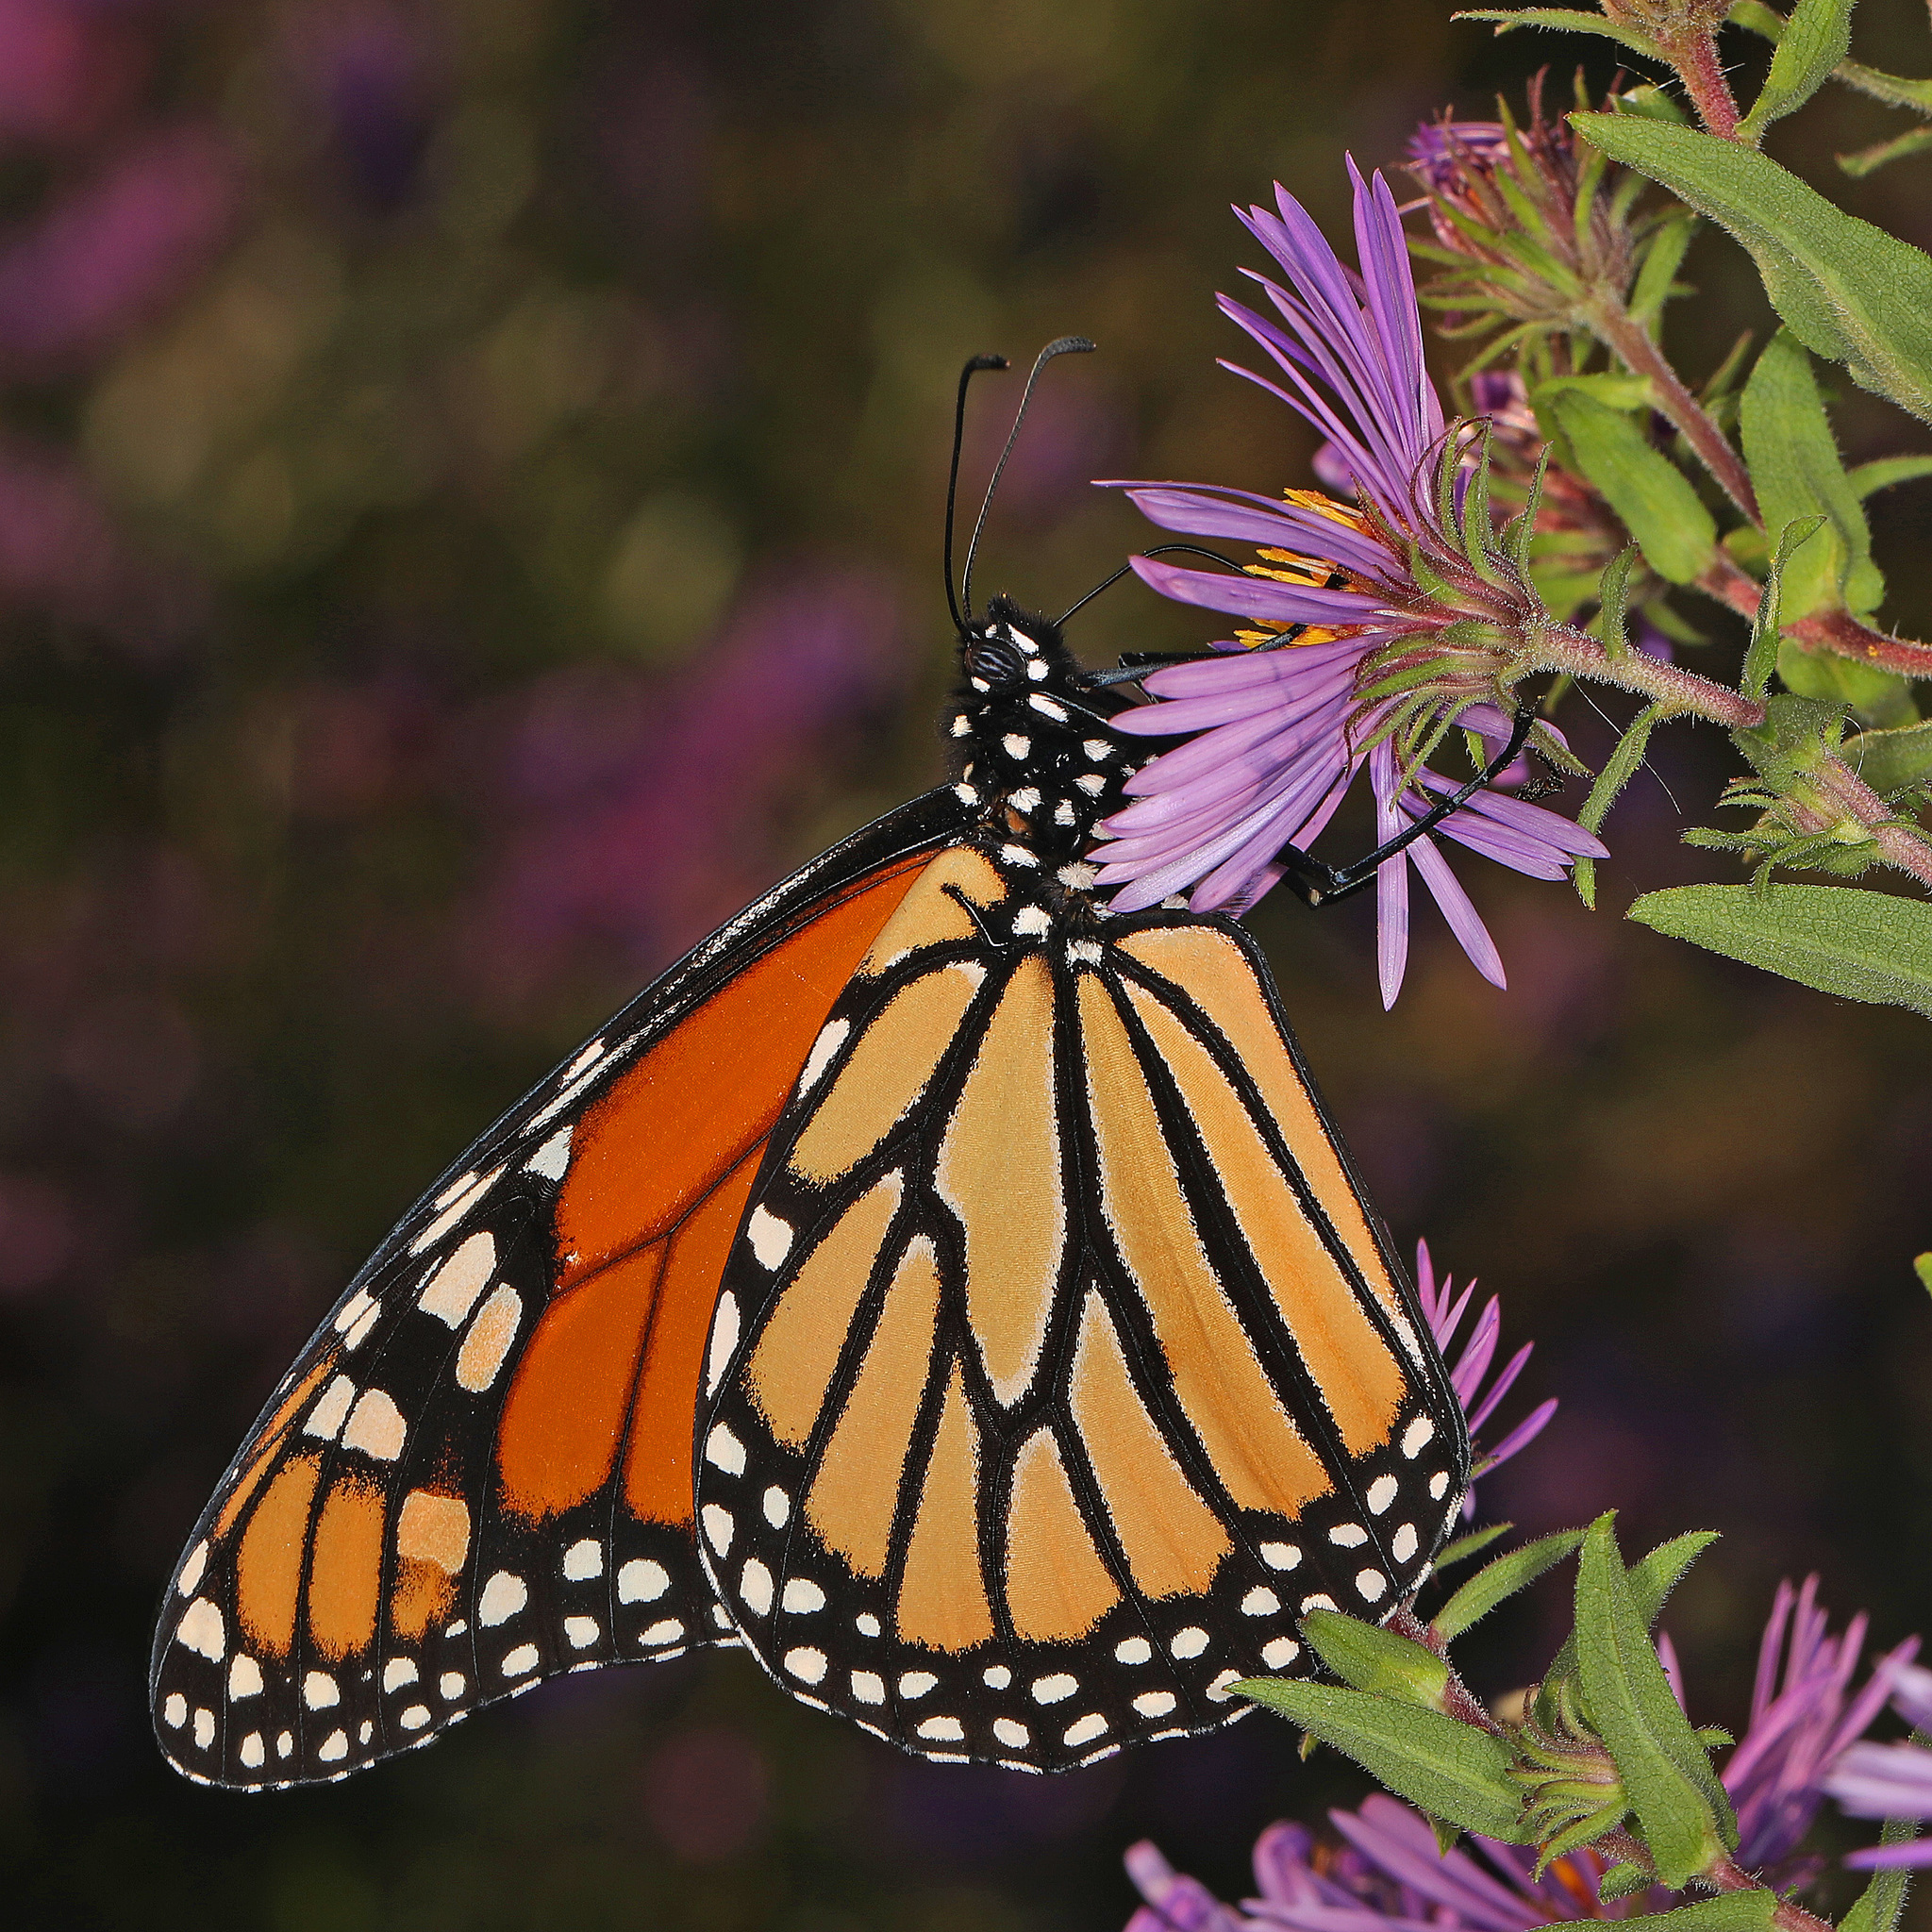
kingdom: Animalia
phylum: Arthropoda
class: Insecta
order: Lepidoptera
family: Nymphalidae
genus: Danaus
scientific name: Danaus plexippus
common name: Monarch
